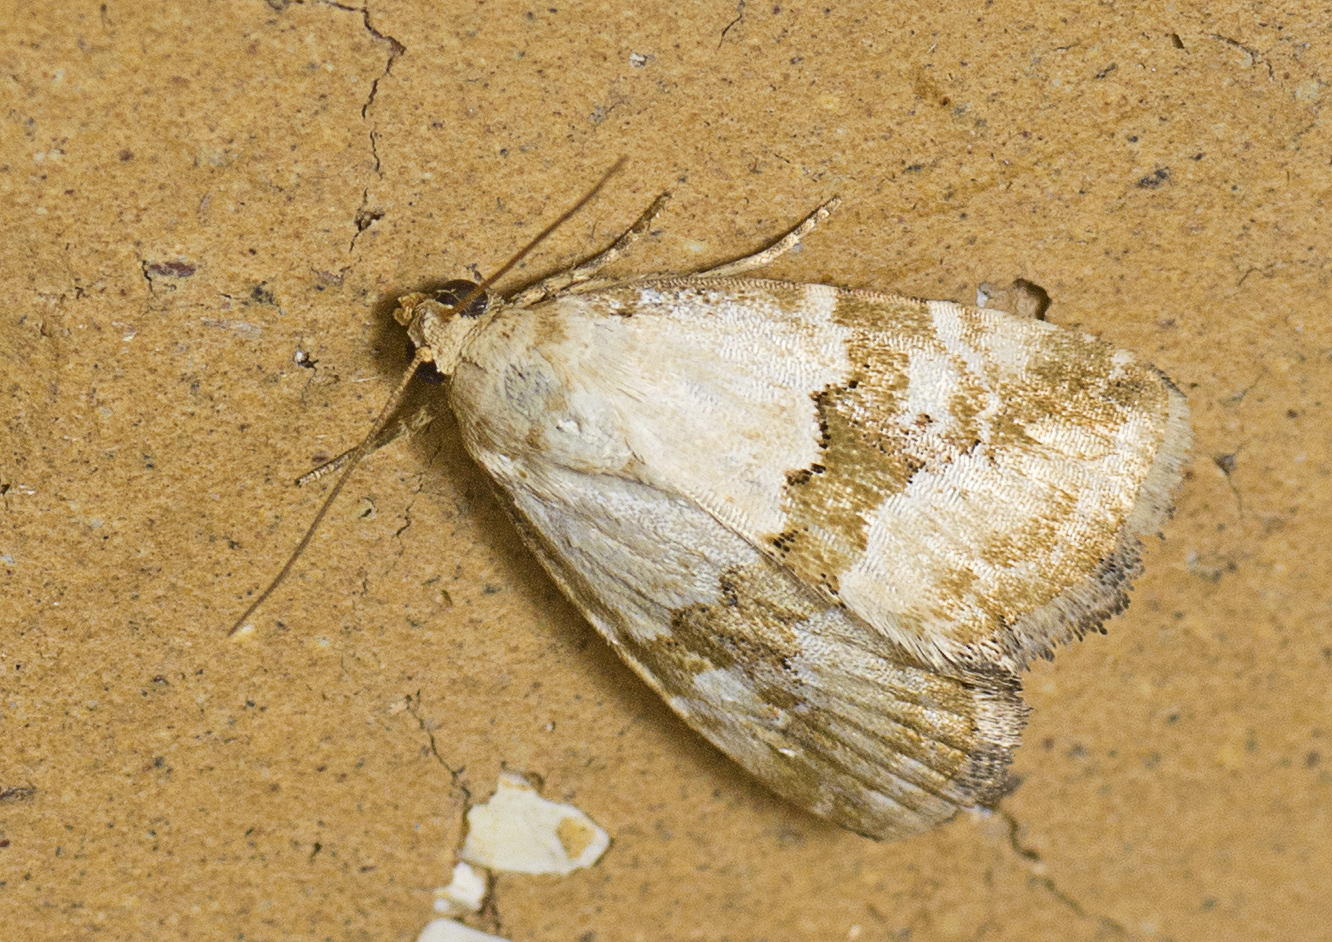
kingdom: Animalia
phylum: Arthropoda
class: Insecta
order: Lepidoptera
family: Noctuidae
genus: Maliattha
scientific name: Maliattha amorpha
